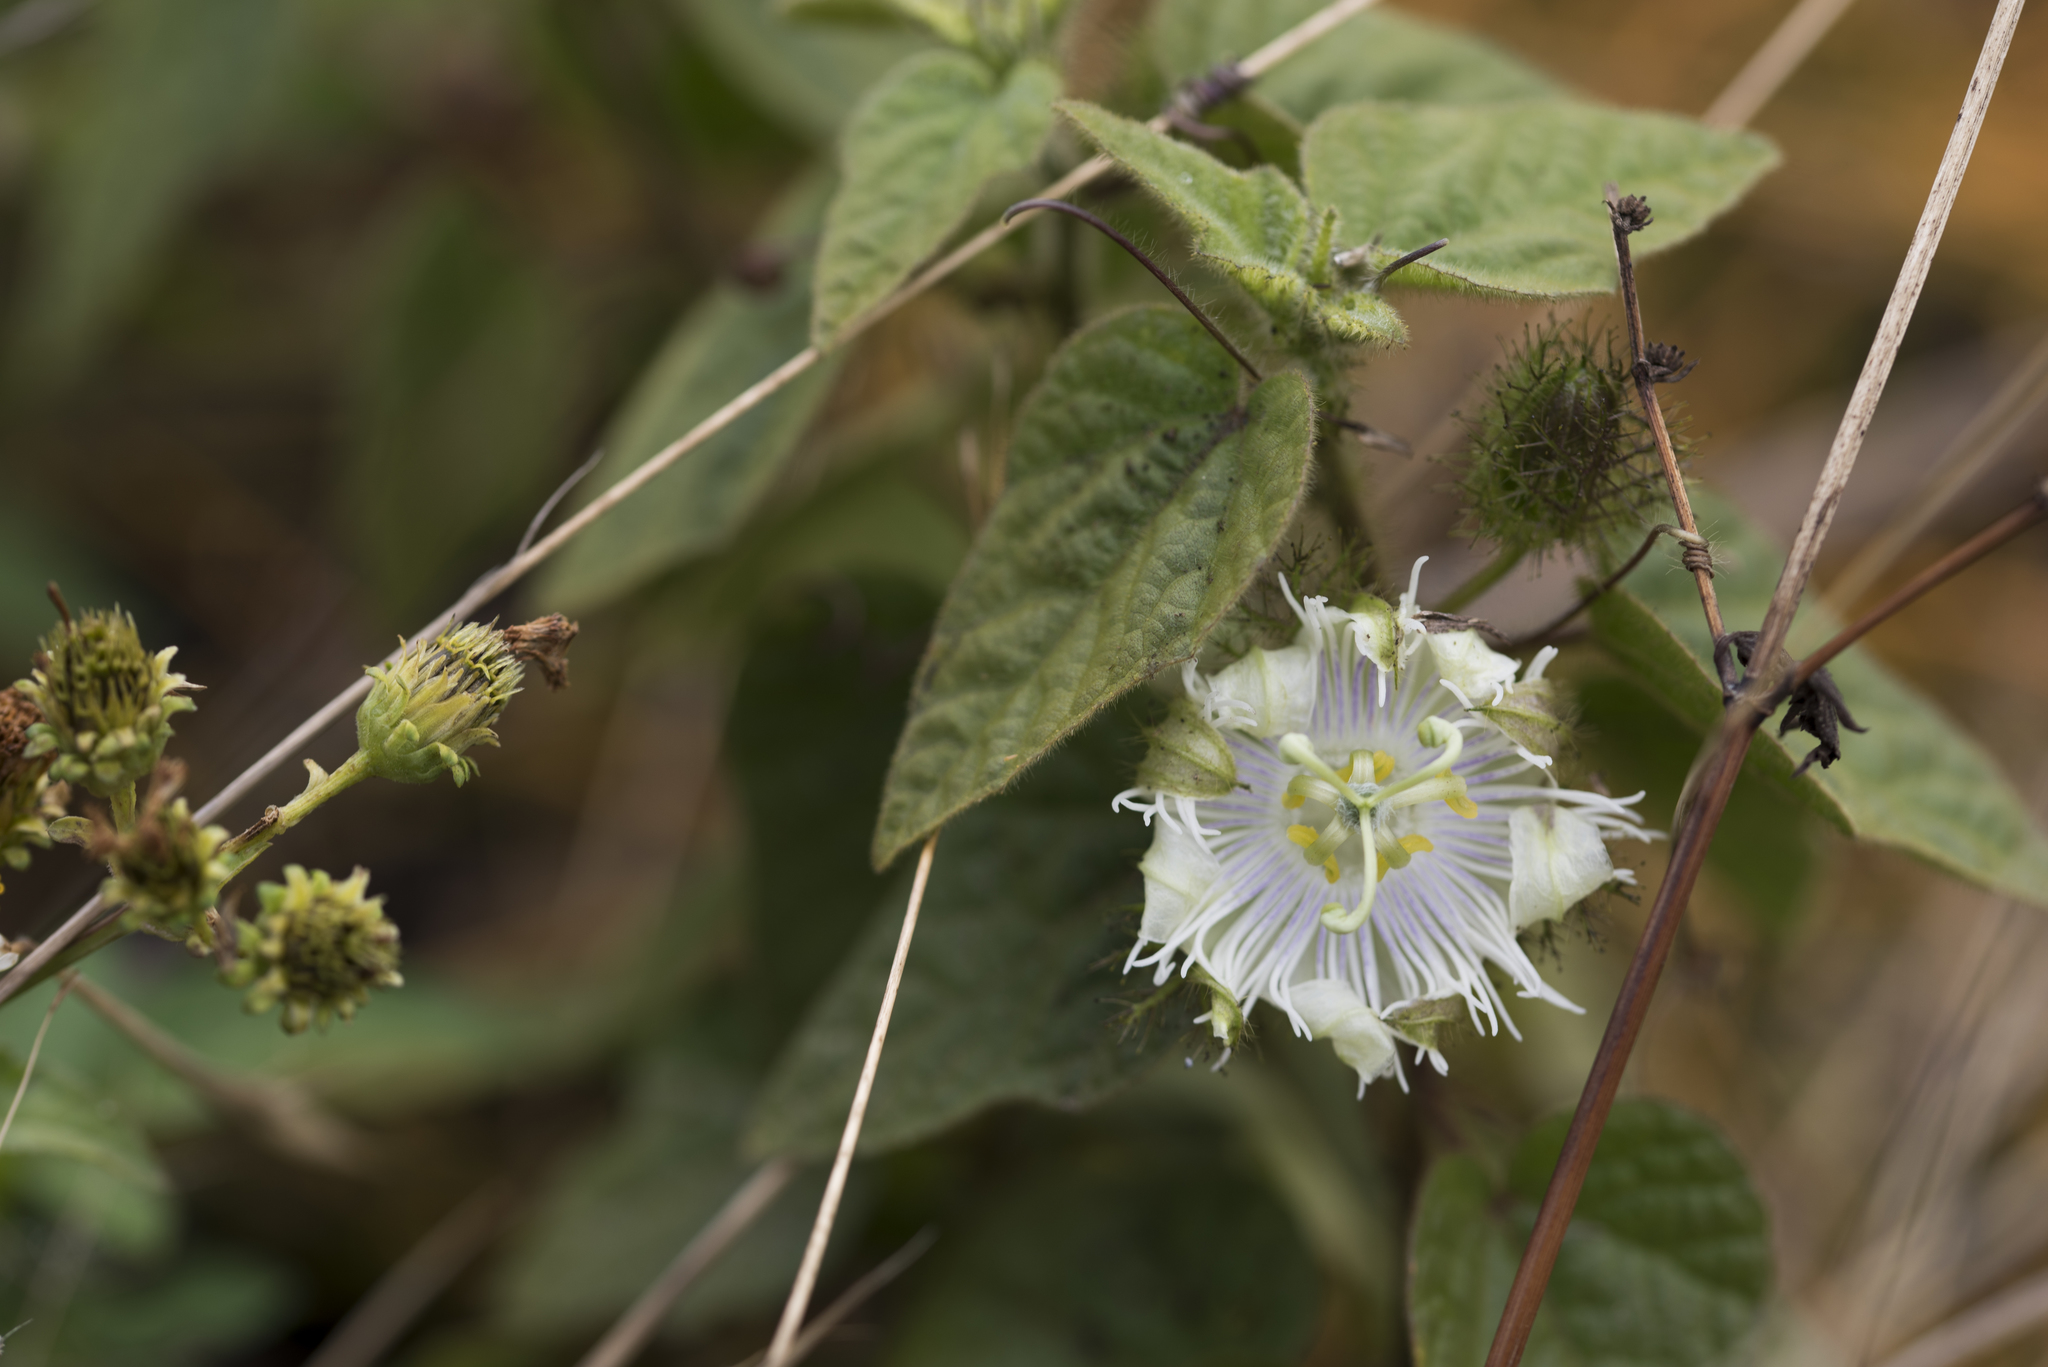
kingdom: Plantae
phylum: Tracheophyta
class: Magnoliopsida
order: Malpighiales
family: Passifloraceae
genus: Passiflora
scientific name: Passiflora foetida
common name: Fetid passionflower
